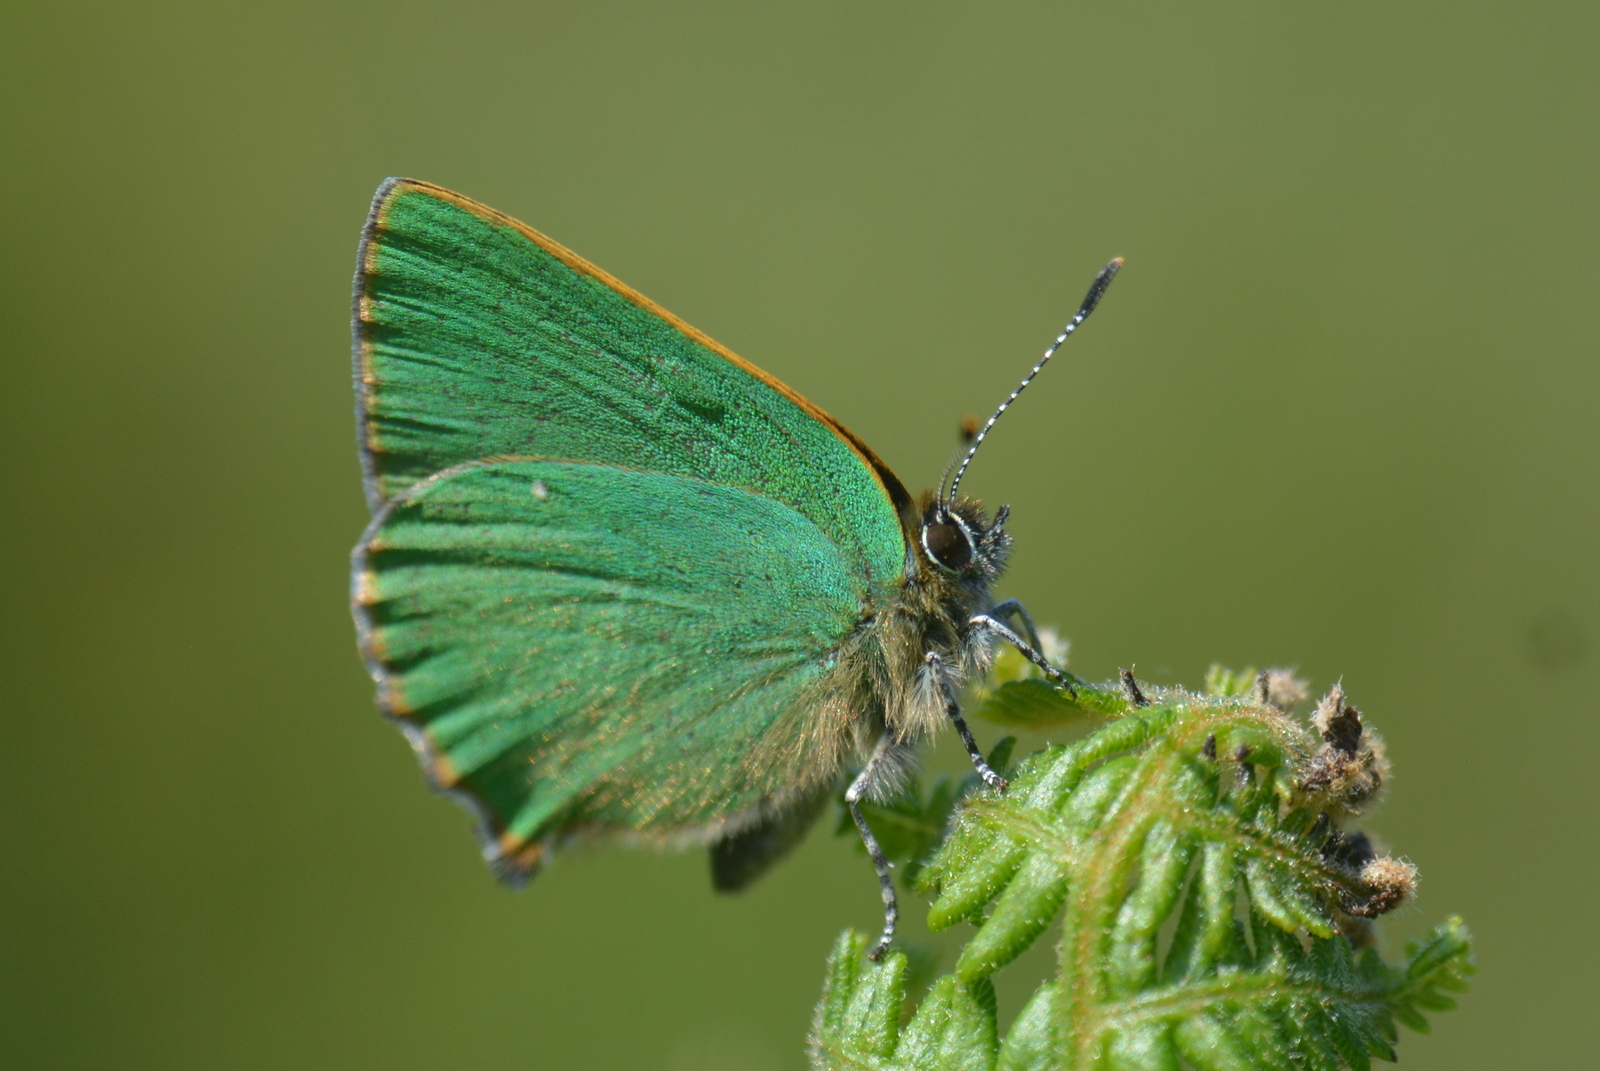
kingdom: Animalia
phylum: Arthropoda
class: Insecta
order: Lepidoptera
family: Lycaenidae
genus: Callophrys
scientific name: Callophrys rubi
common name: Green hairstreak
